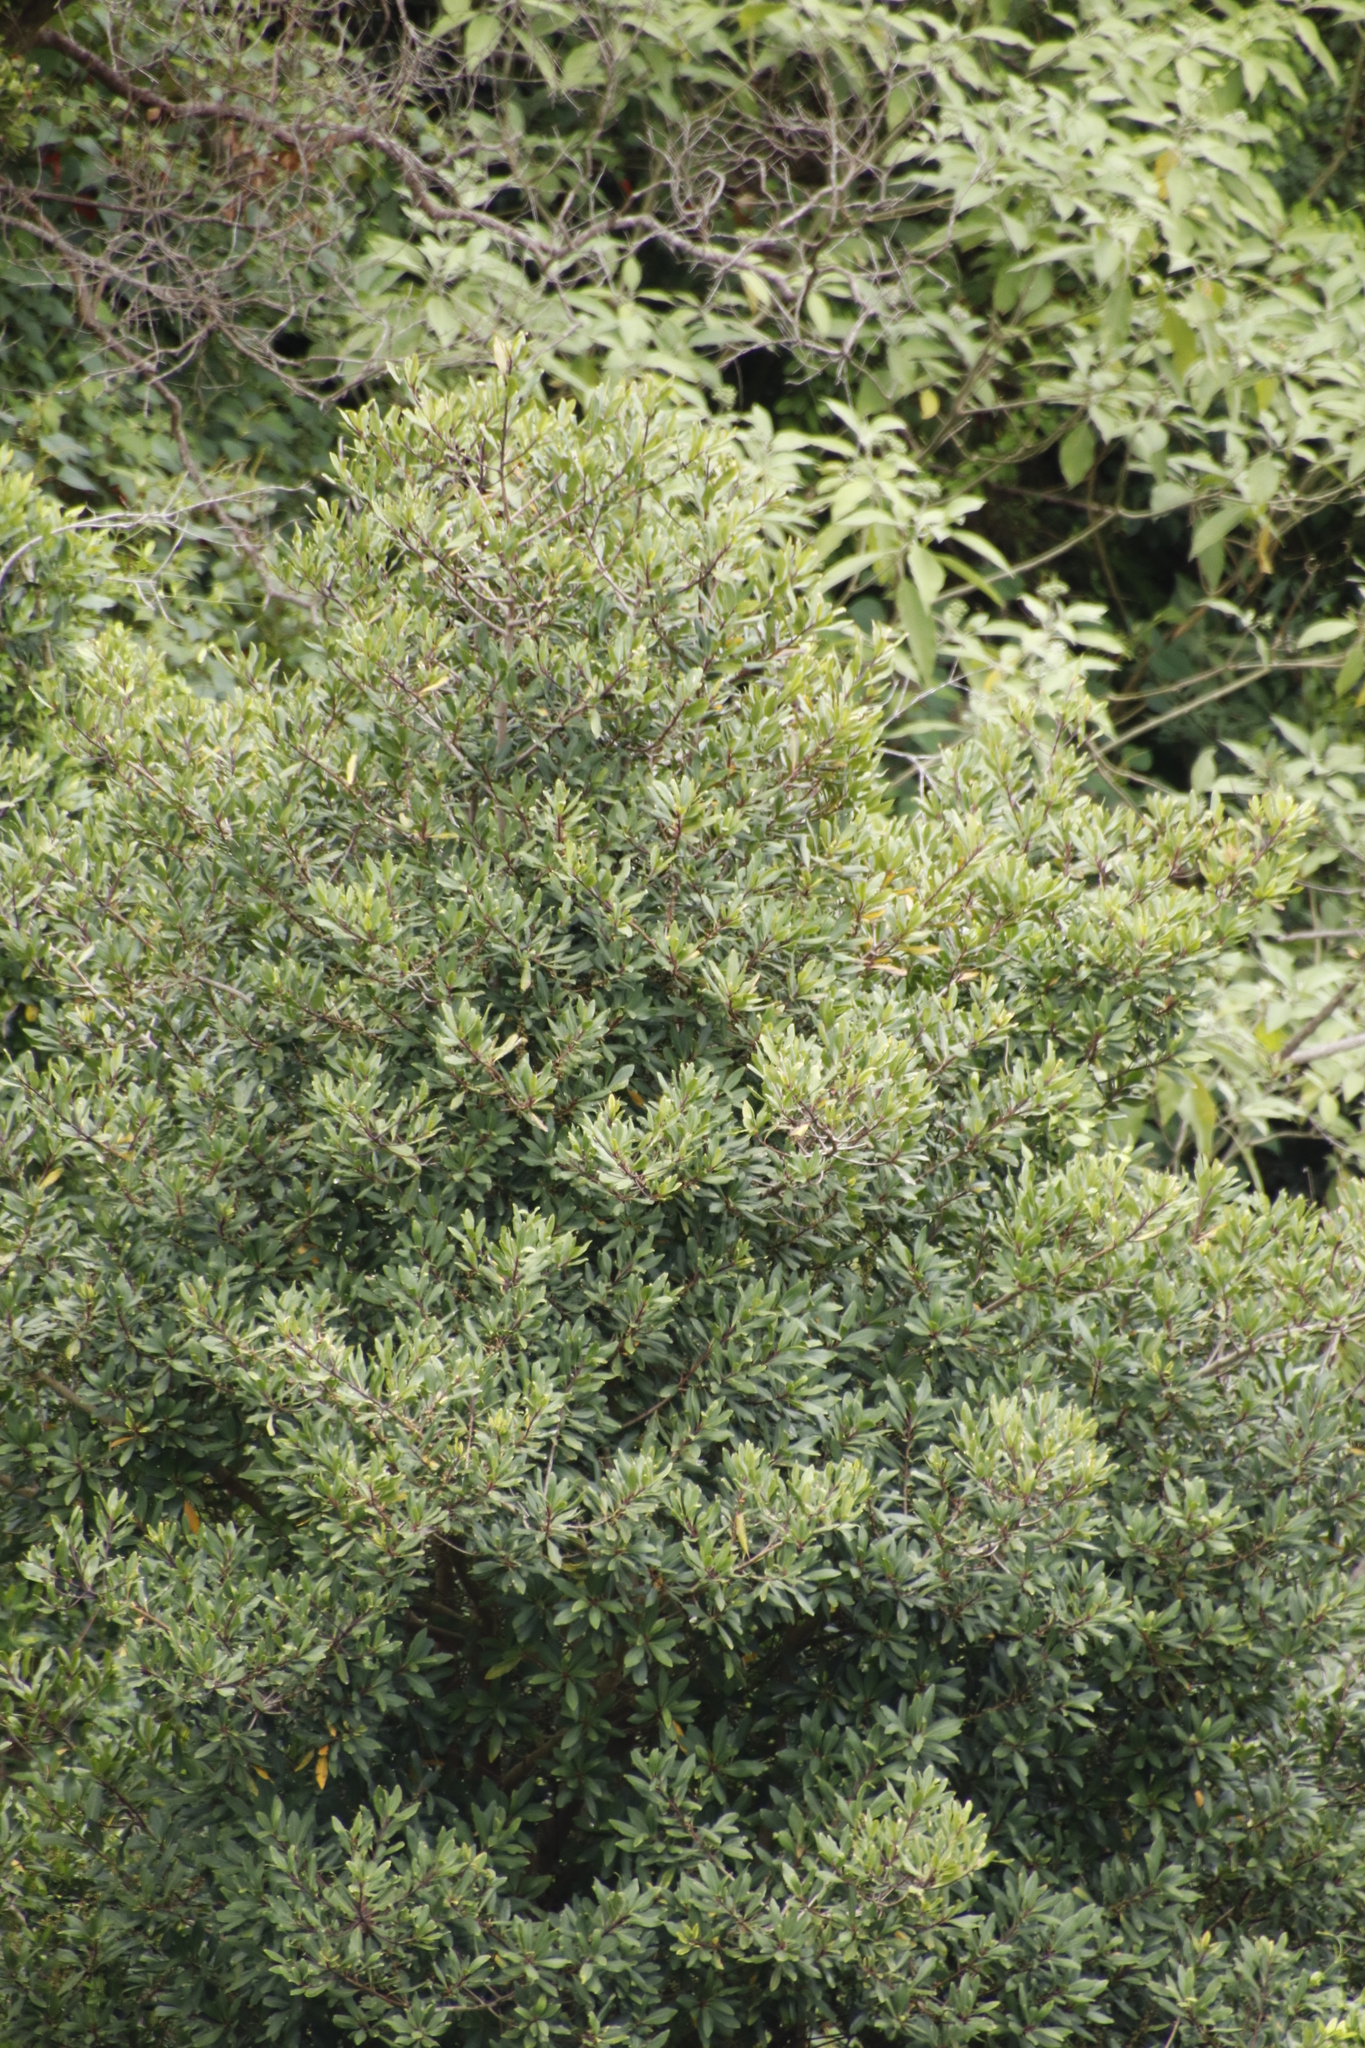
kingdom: Plantae
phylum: Tracheophyta
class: Magnoliopsida
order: Ericales
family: Primulaceae
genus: Myrsine
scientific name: Myrsine melanophloeos
